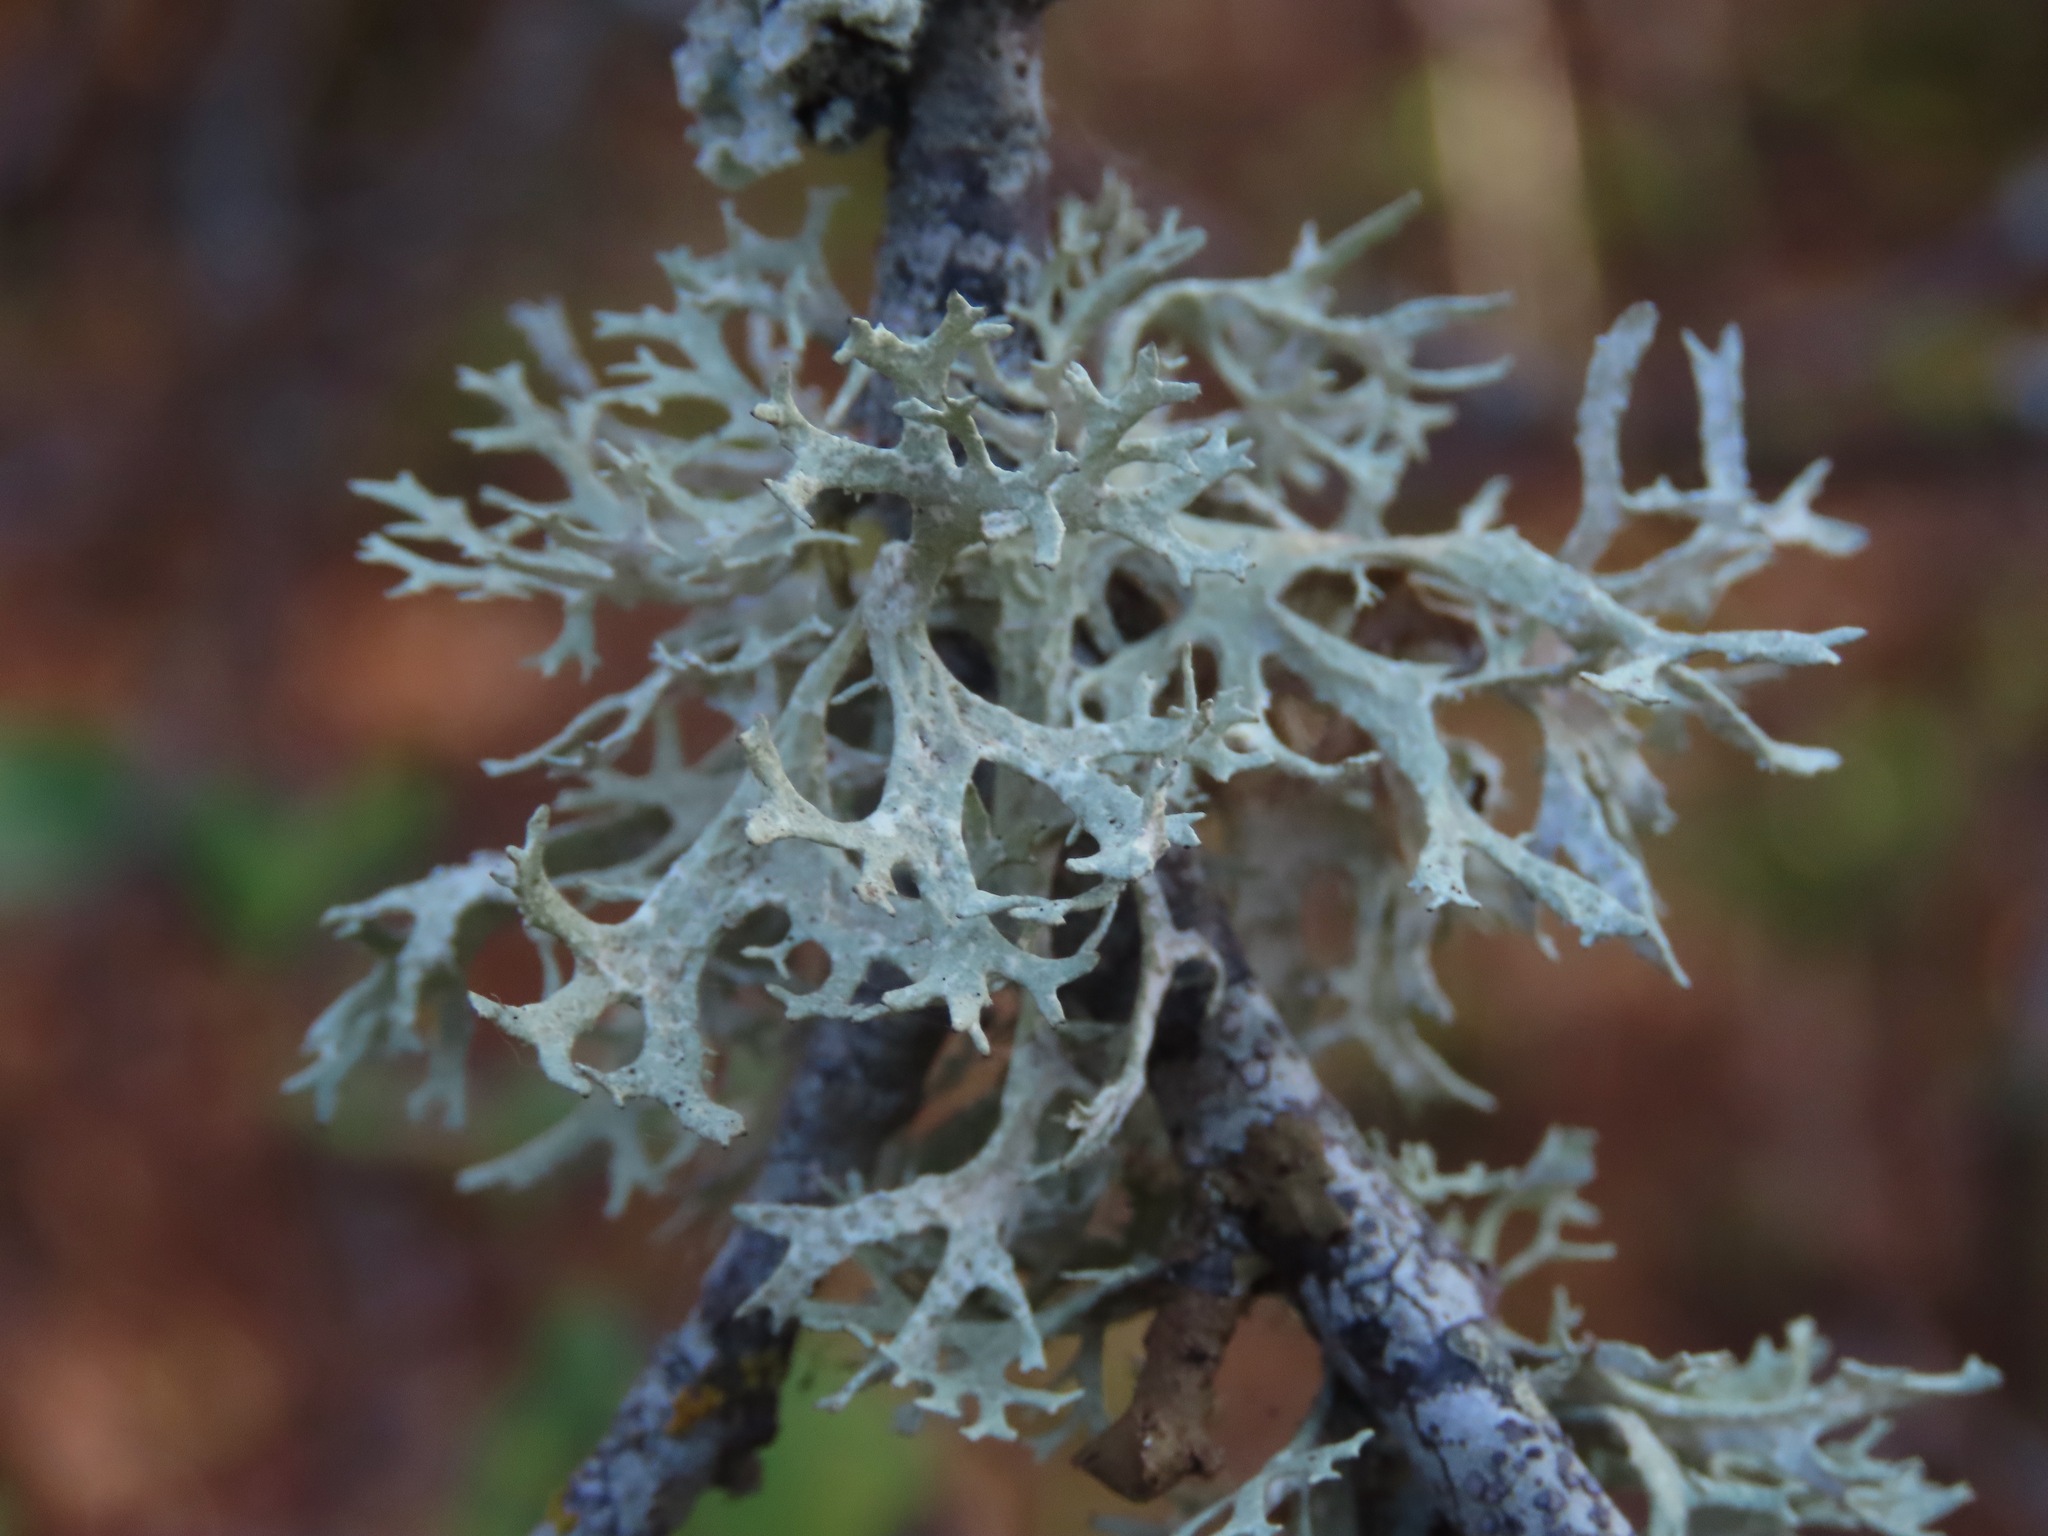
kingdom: Fungi
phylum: Ascomycota
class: Lecanoromycetes
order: Lecanorales
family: Parmeliaceae
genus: Evernia
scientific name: Evernia prunastri
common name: Oak moss
